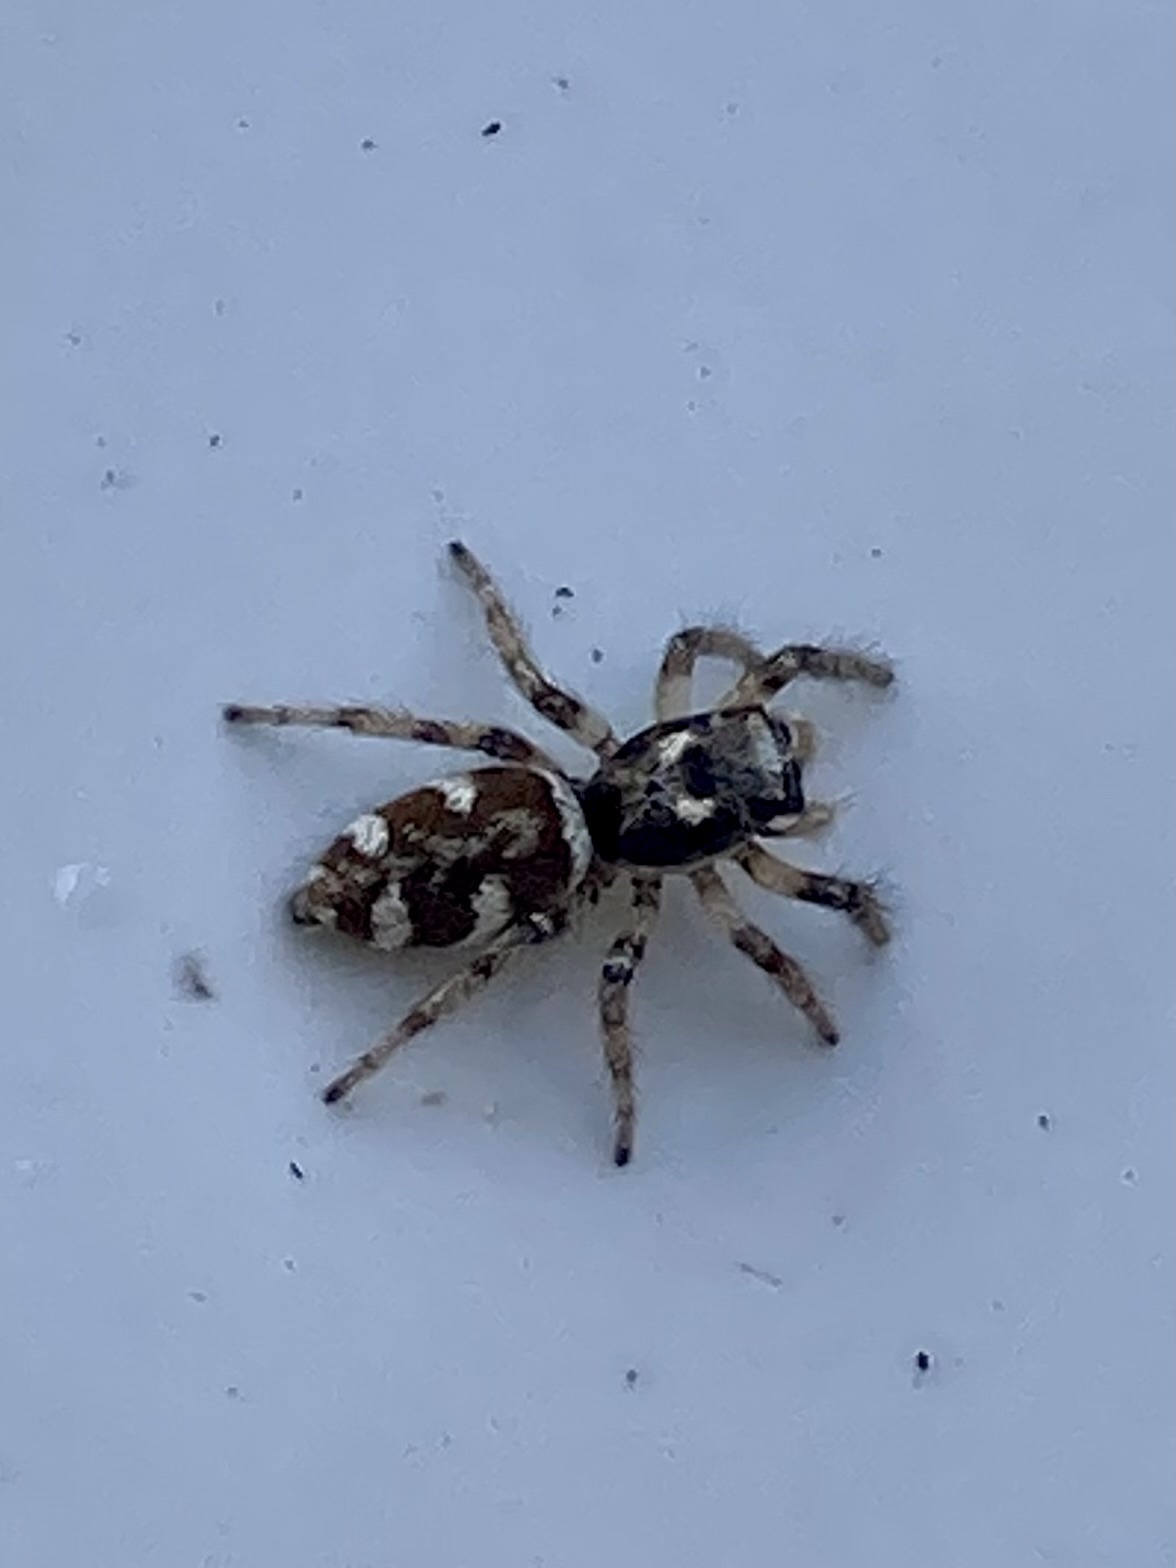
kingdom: Animalia
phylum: Arthropoda
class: Arachnida
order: Araneae
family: Salticidae
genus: Salticus
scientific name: Salticus scenicus
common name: Zebra jumper
